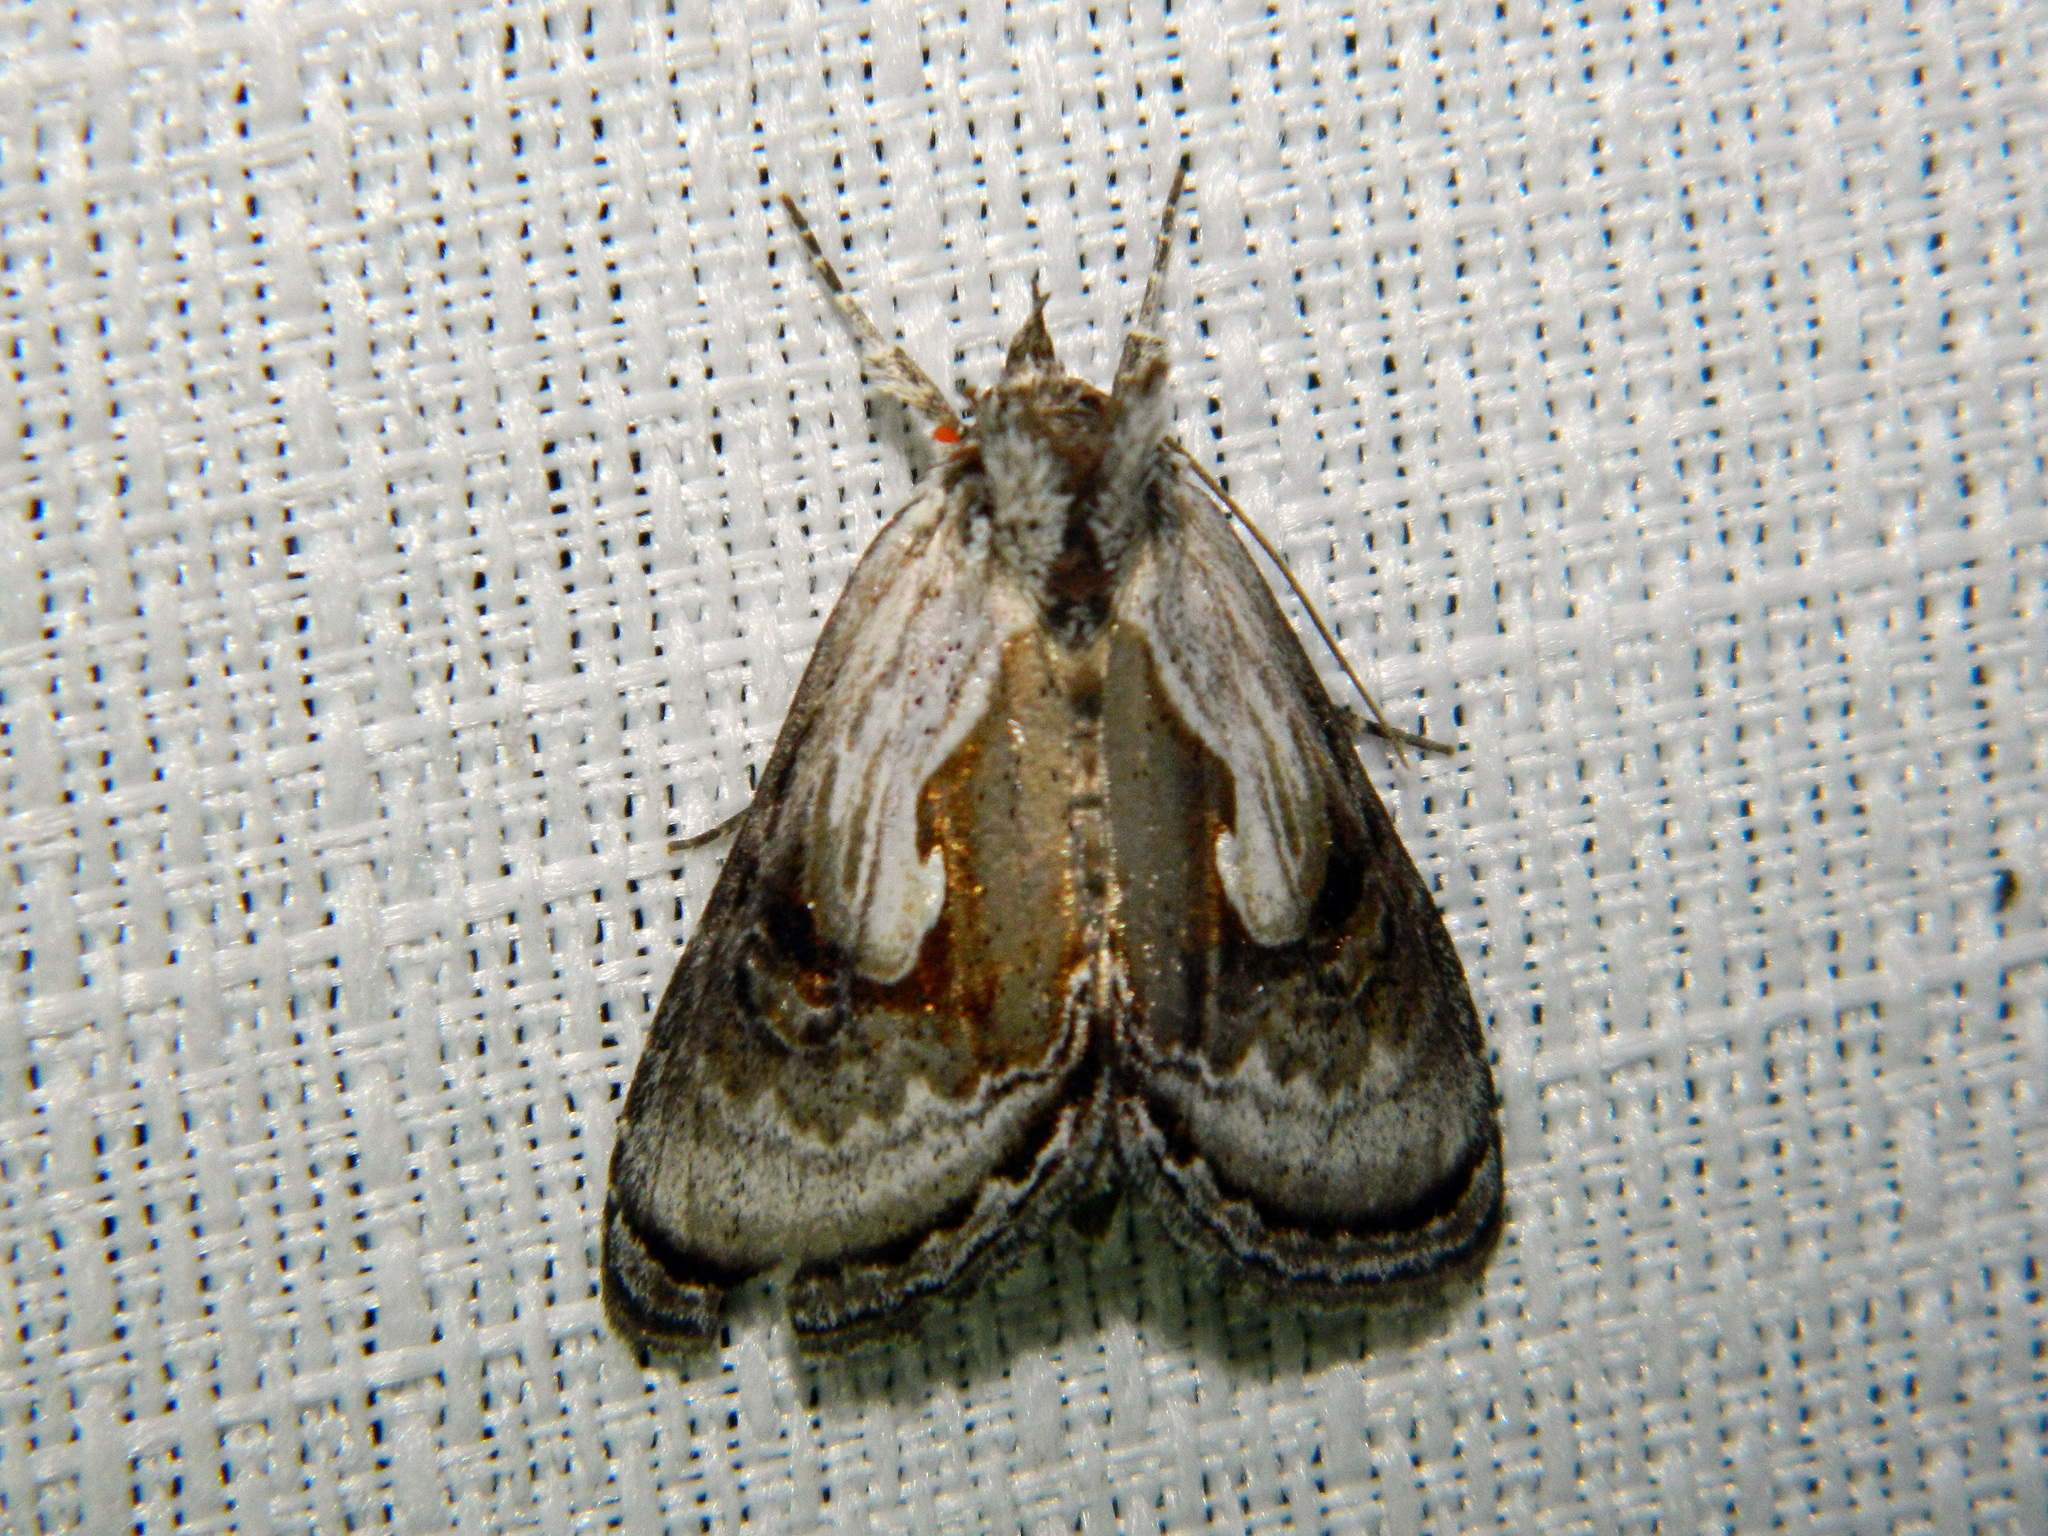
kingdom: Animalia
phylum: Arthropoda
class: Insecta
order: Lepidoptera
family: Noctuidae
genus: Chrysanympha
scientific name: Chrysanympha formosa
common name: Formosa looper moth
